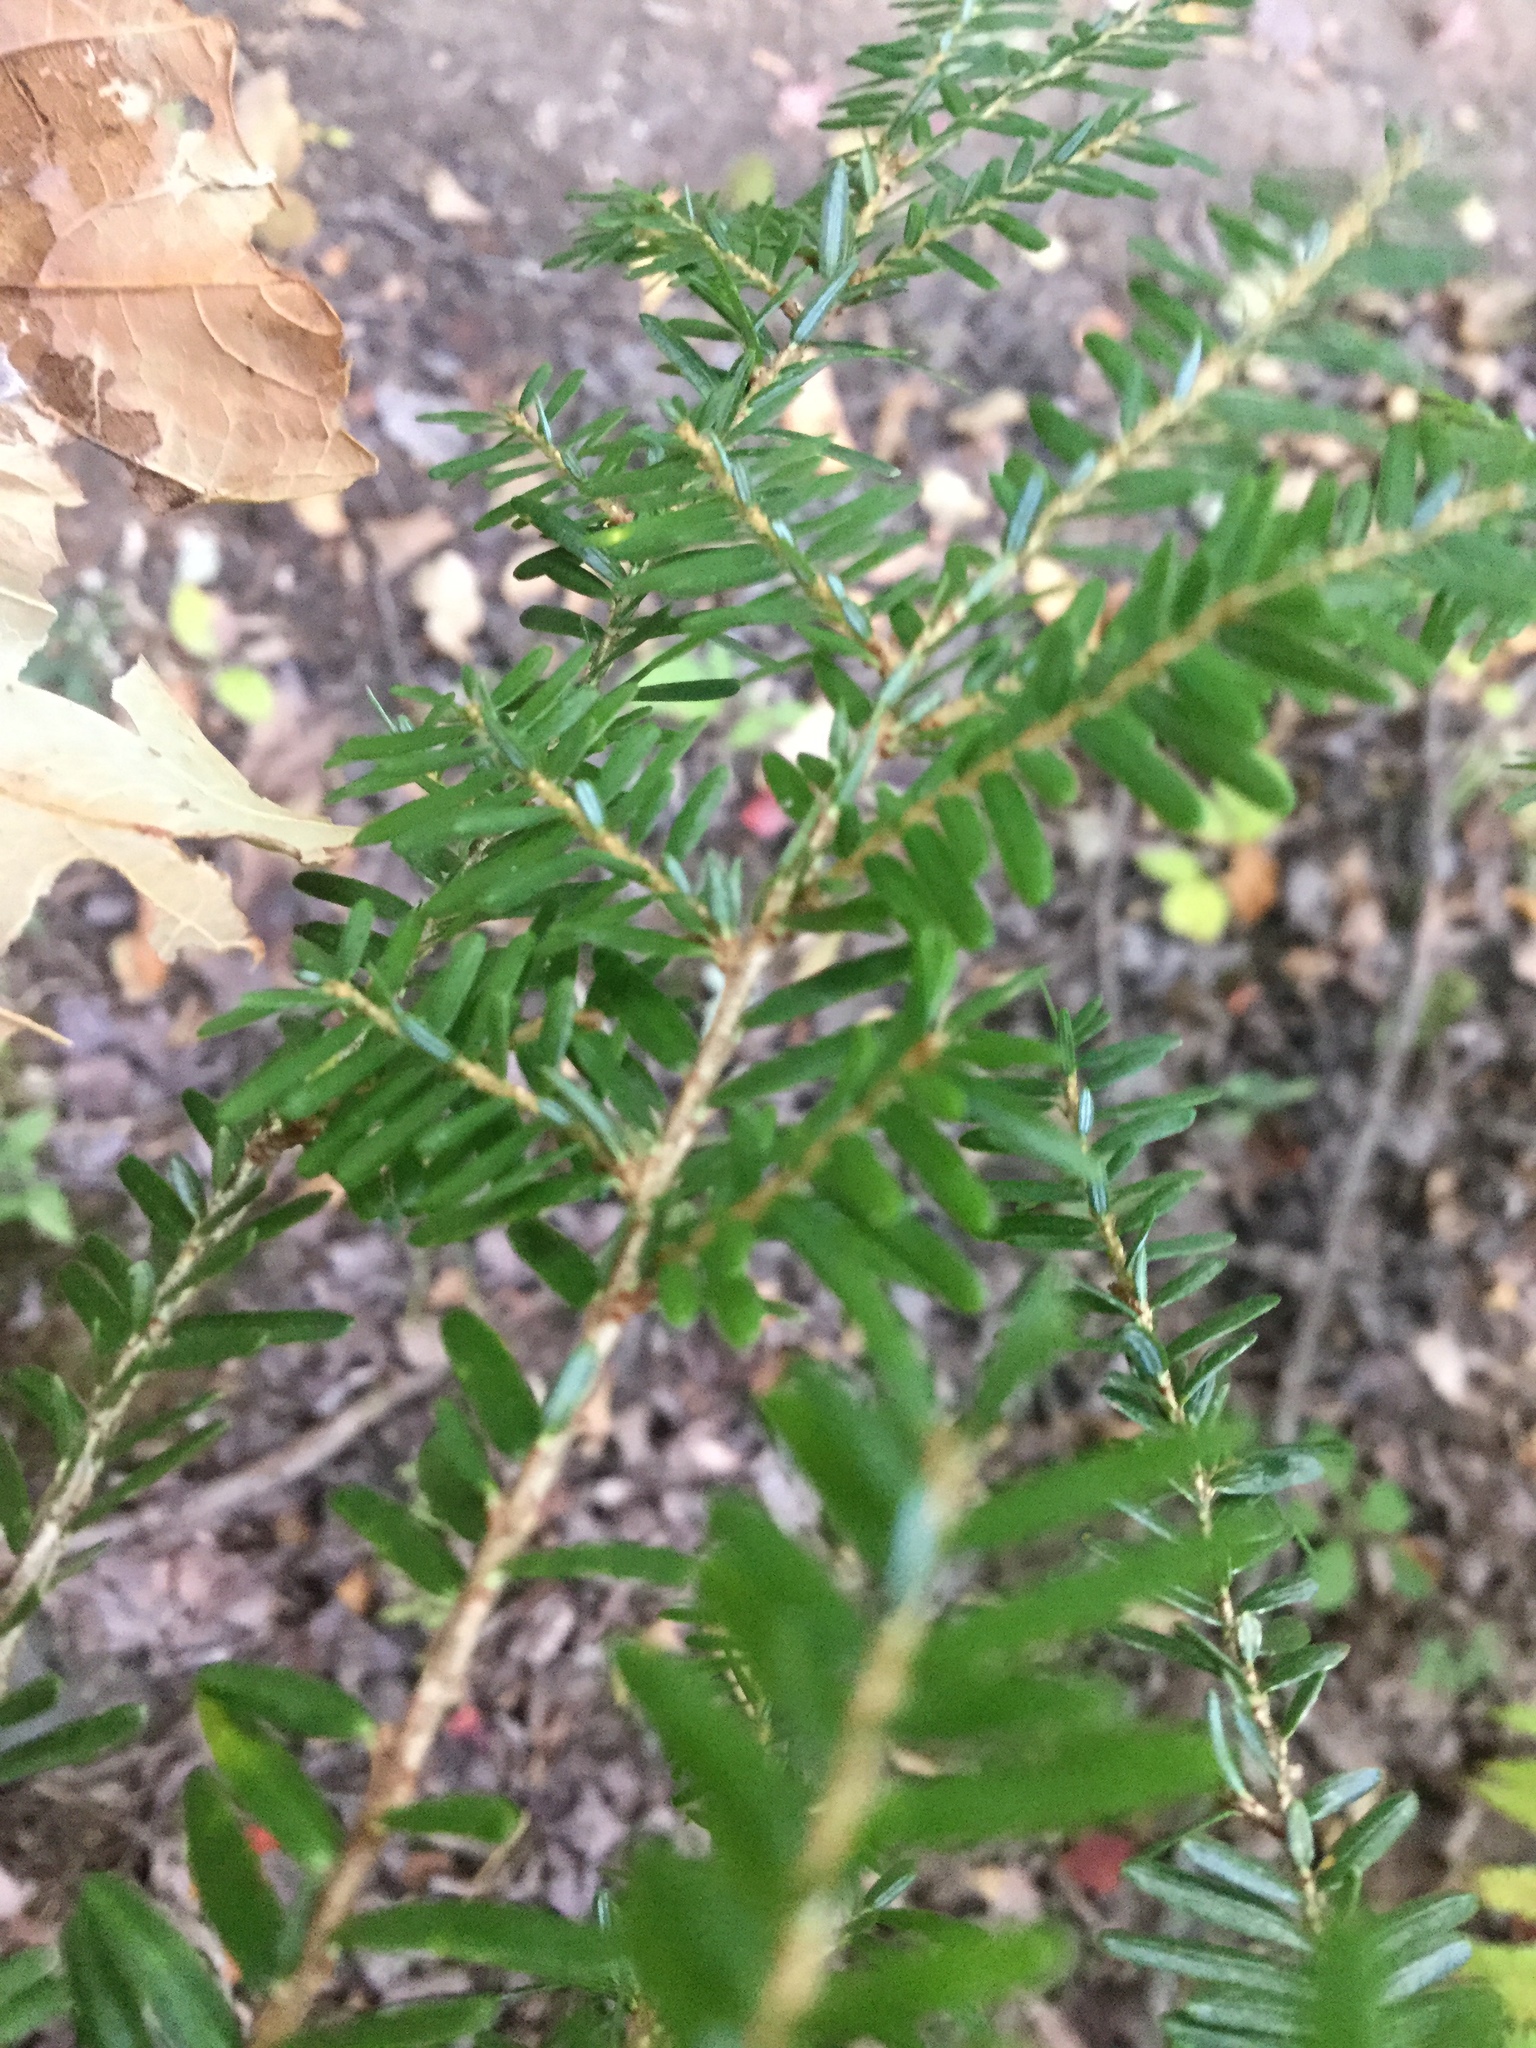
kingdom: Plantae
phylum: Tracheophyta
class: Pinopsida
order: Pinales
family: Pinaceae
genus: Tsuga
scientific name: Tsuga canadensis
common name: Eastern hemlock
